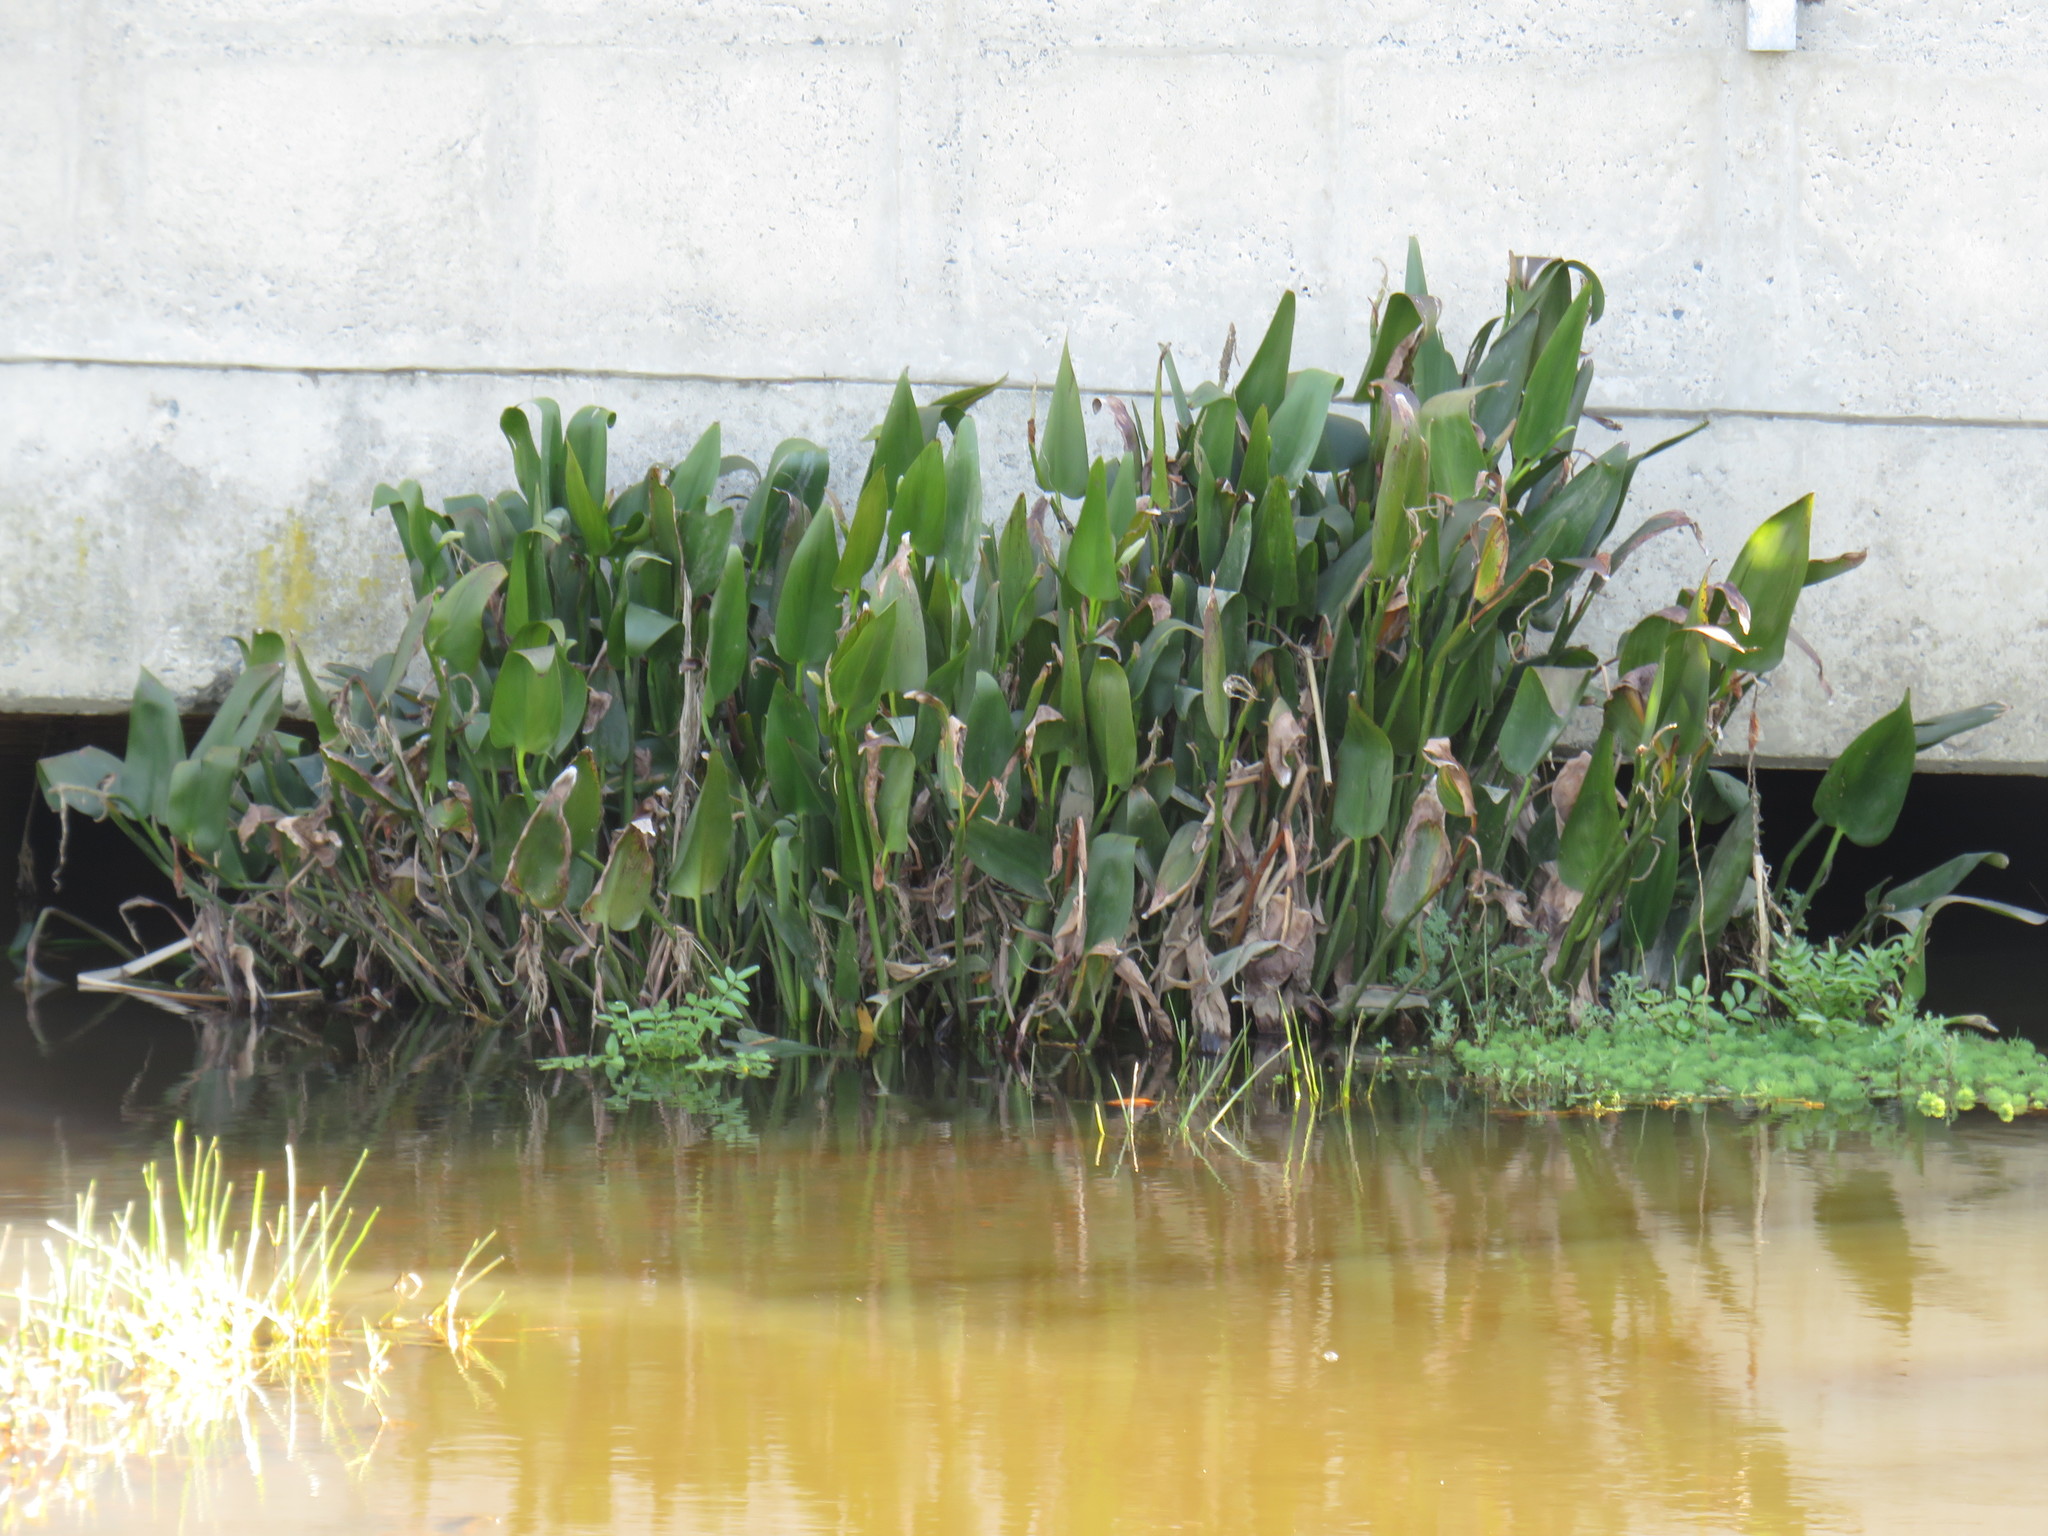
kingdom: Plantae
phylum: Tracheophyta
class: Liliopsida
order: Commelinales
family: Pontederiaceae
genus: Pontederia
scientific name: Pontederia cordata
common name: Pickerelweed
